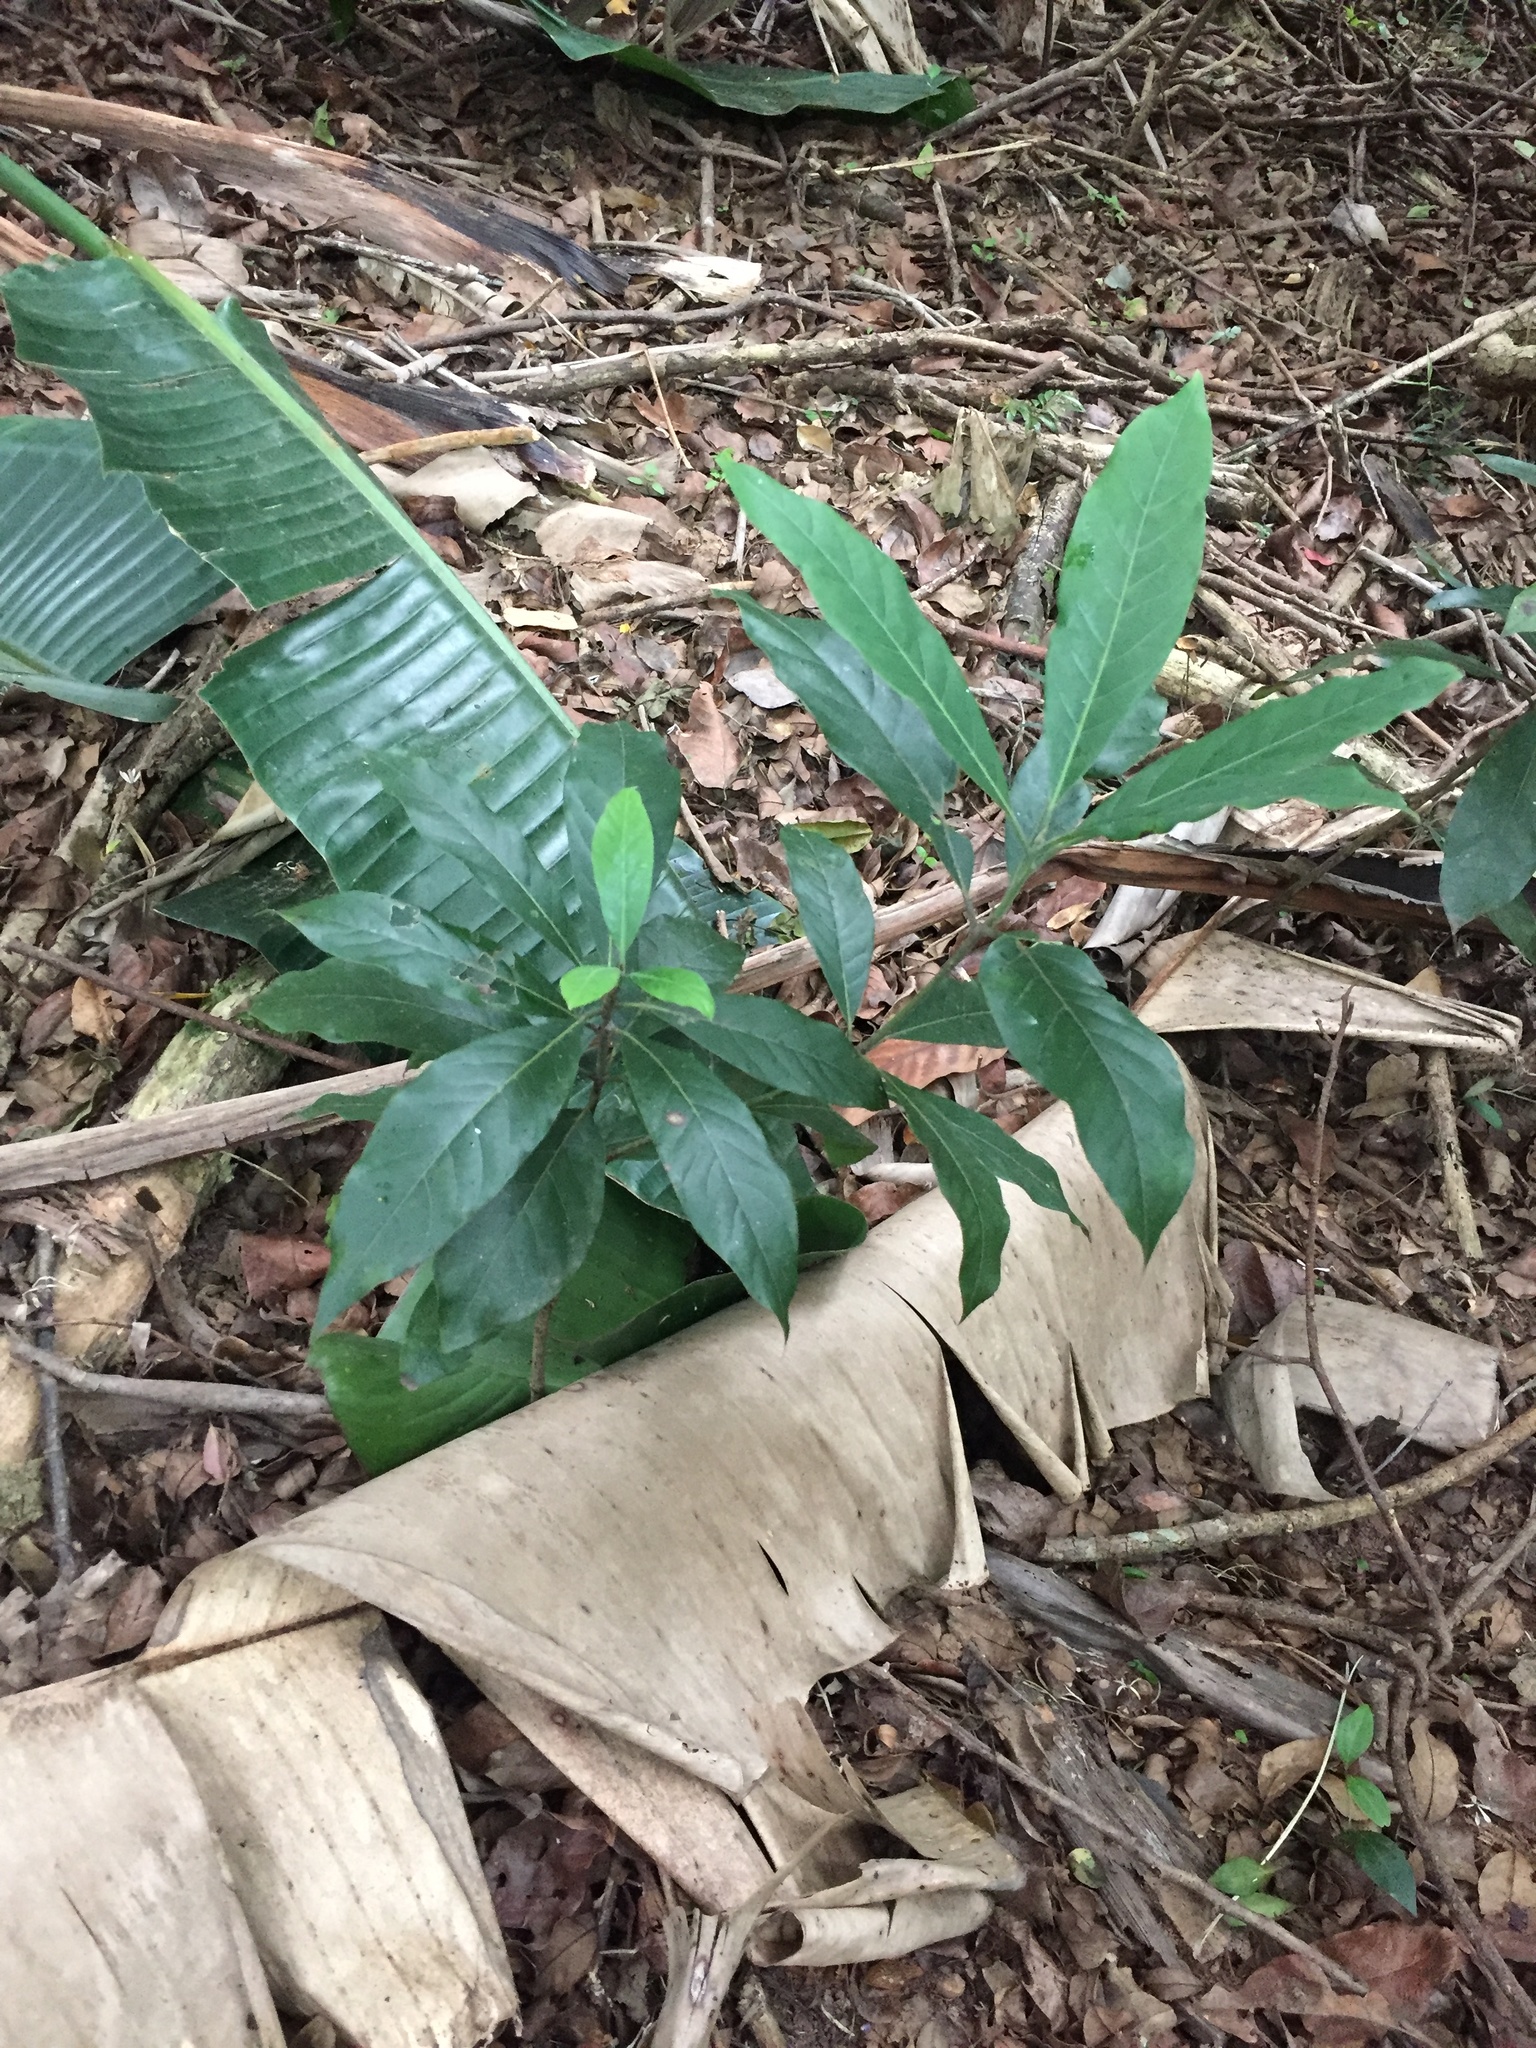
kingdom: Plantae
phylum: Tracheophyta
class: Magnoliopsida
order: Laurales
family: Lauraceae
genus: Litsea
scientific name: Litsea glutinosa
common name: Indian-laurel
